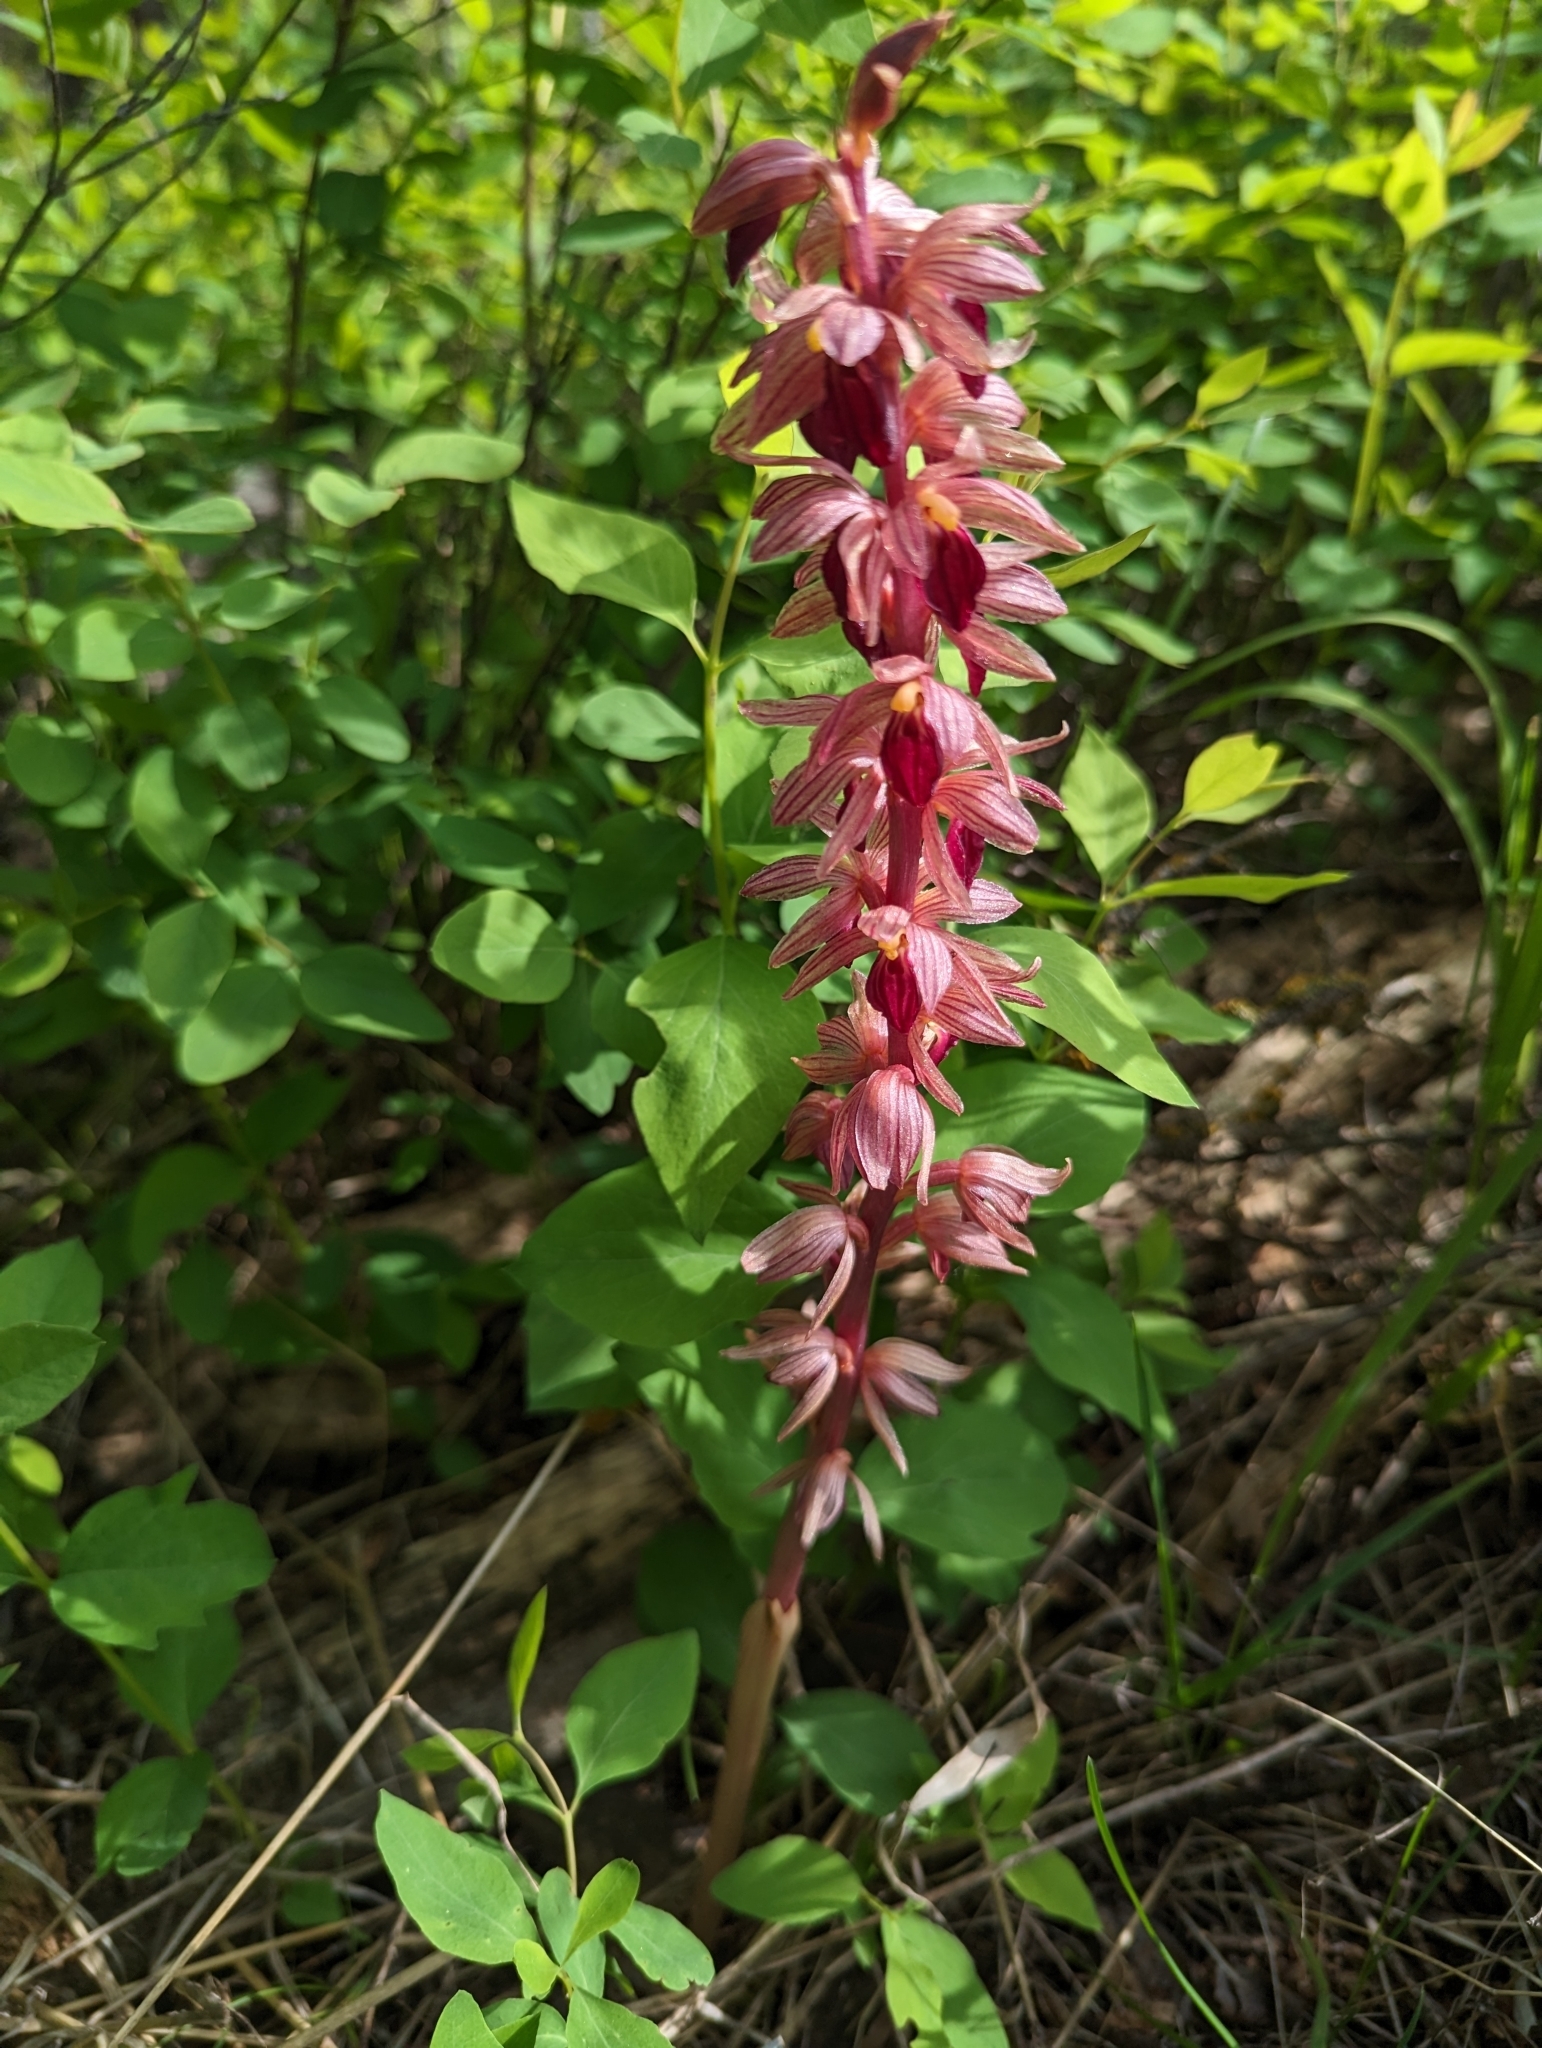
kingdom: Plantae
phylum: Tracheophyta
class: Liliopsida
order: Asparagales
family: Orchidaceae
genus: Corallorhiza
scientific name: Corallorhiza striata
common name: Hooded coralroot
